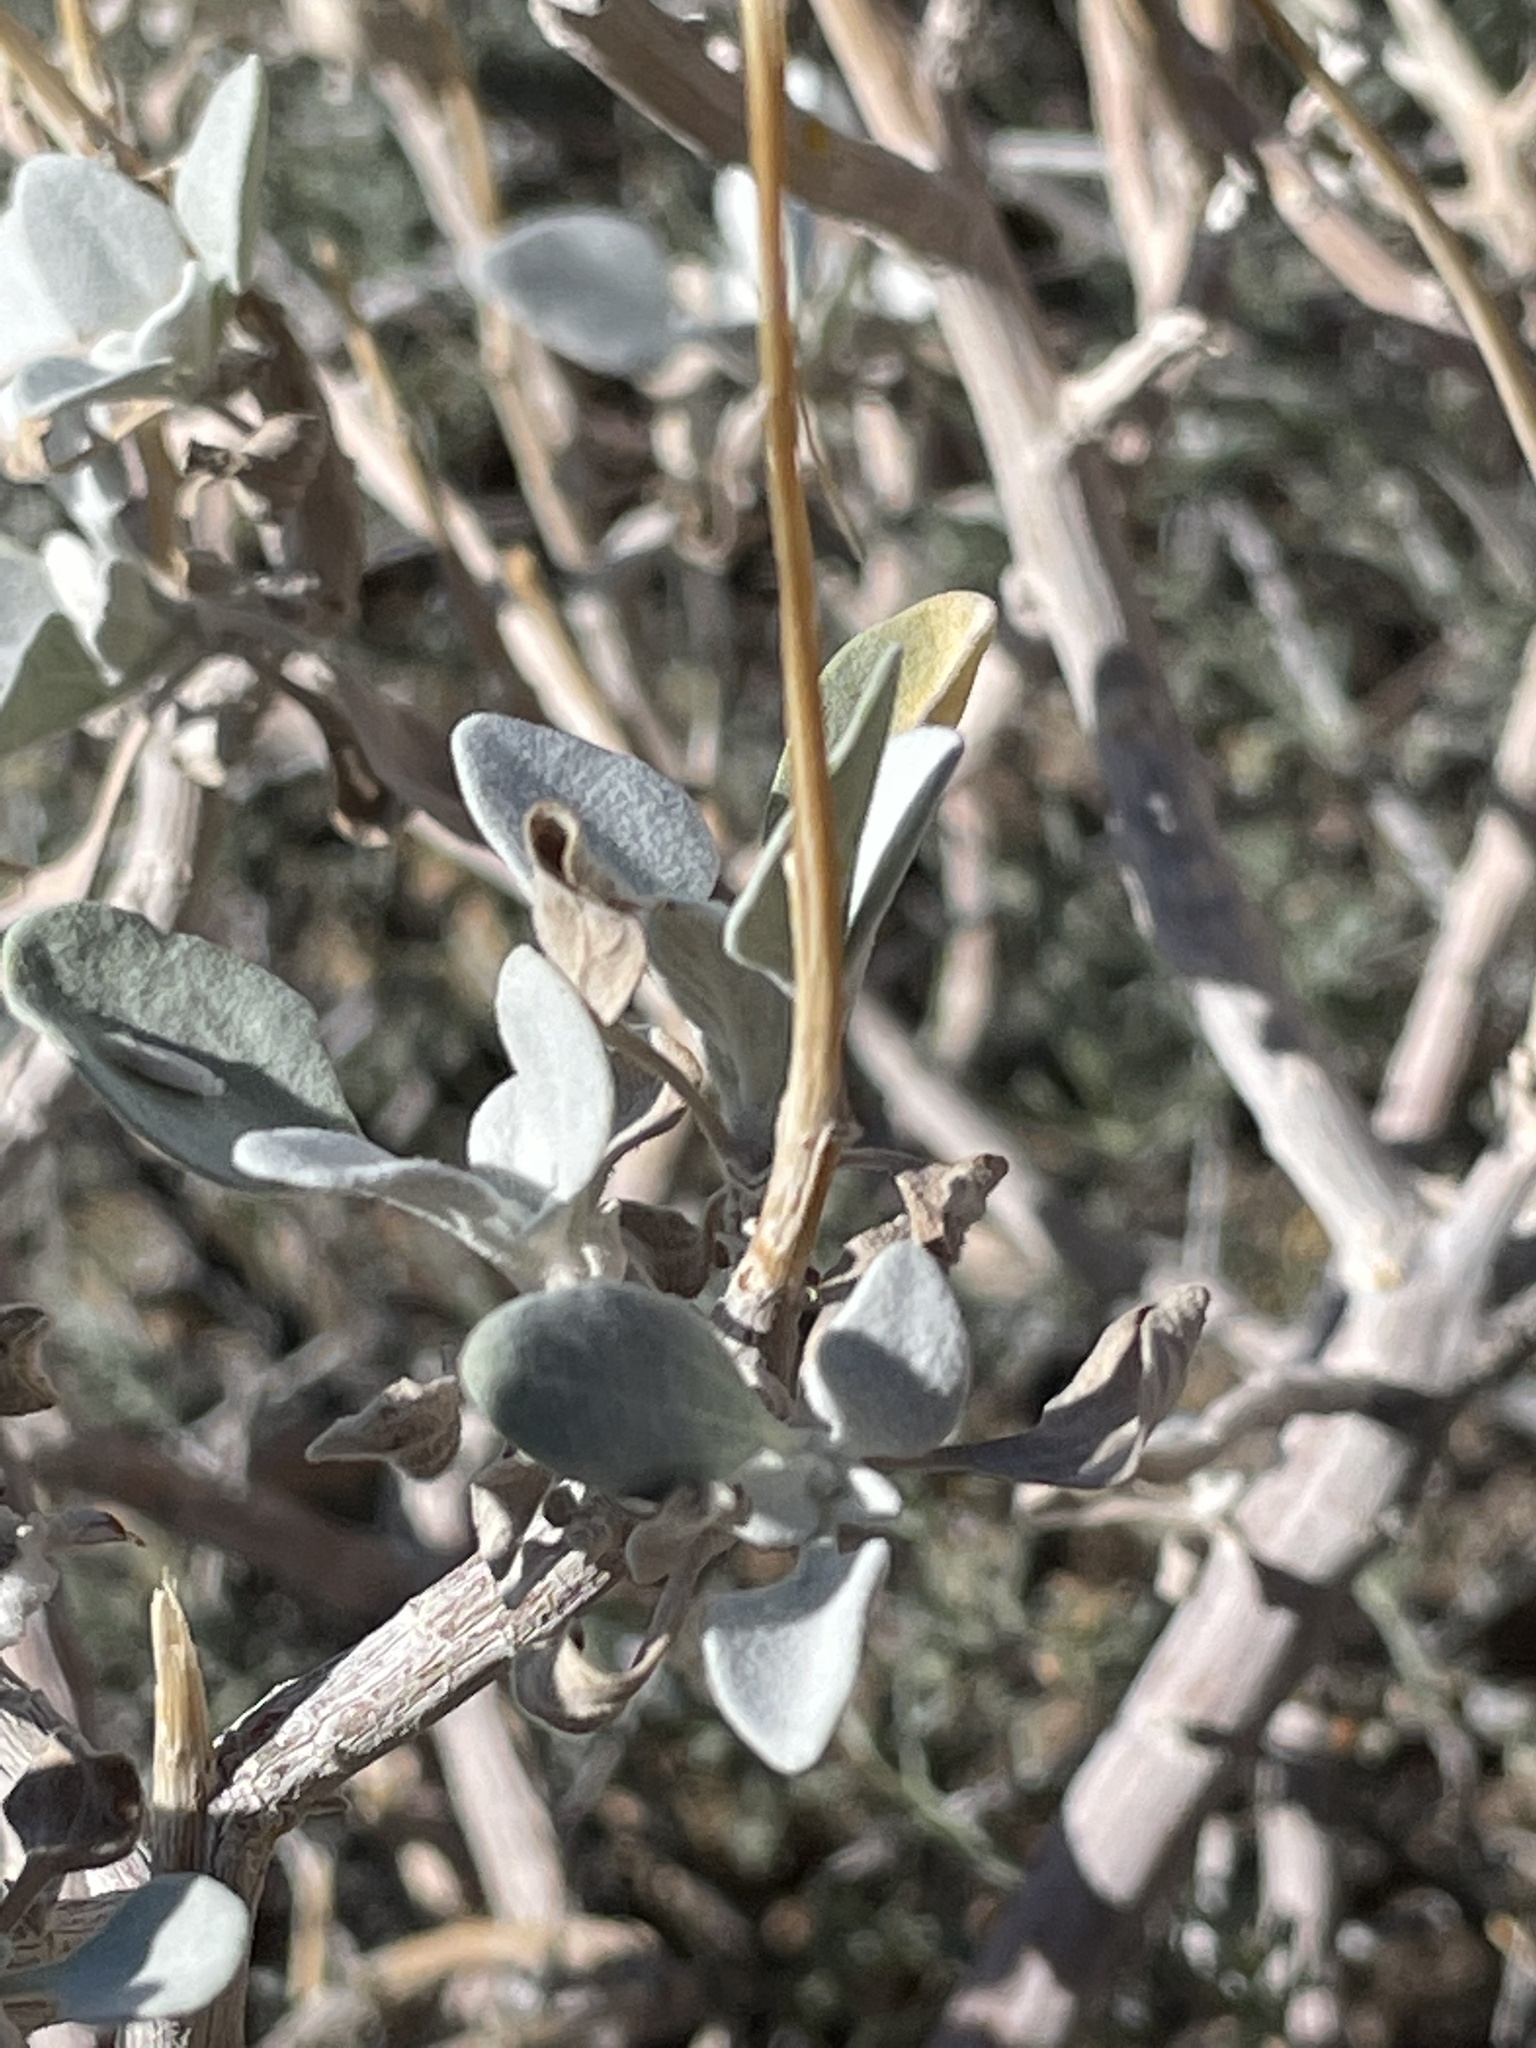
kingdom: Plantae
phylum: Tracheophyta
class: Magnoliopsida
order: Asterales
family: Asteraceae
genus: Encelia
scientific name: Encelia farinosa
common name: Brittlebush
